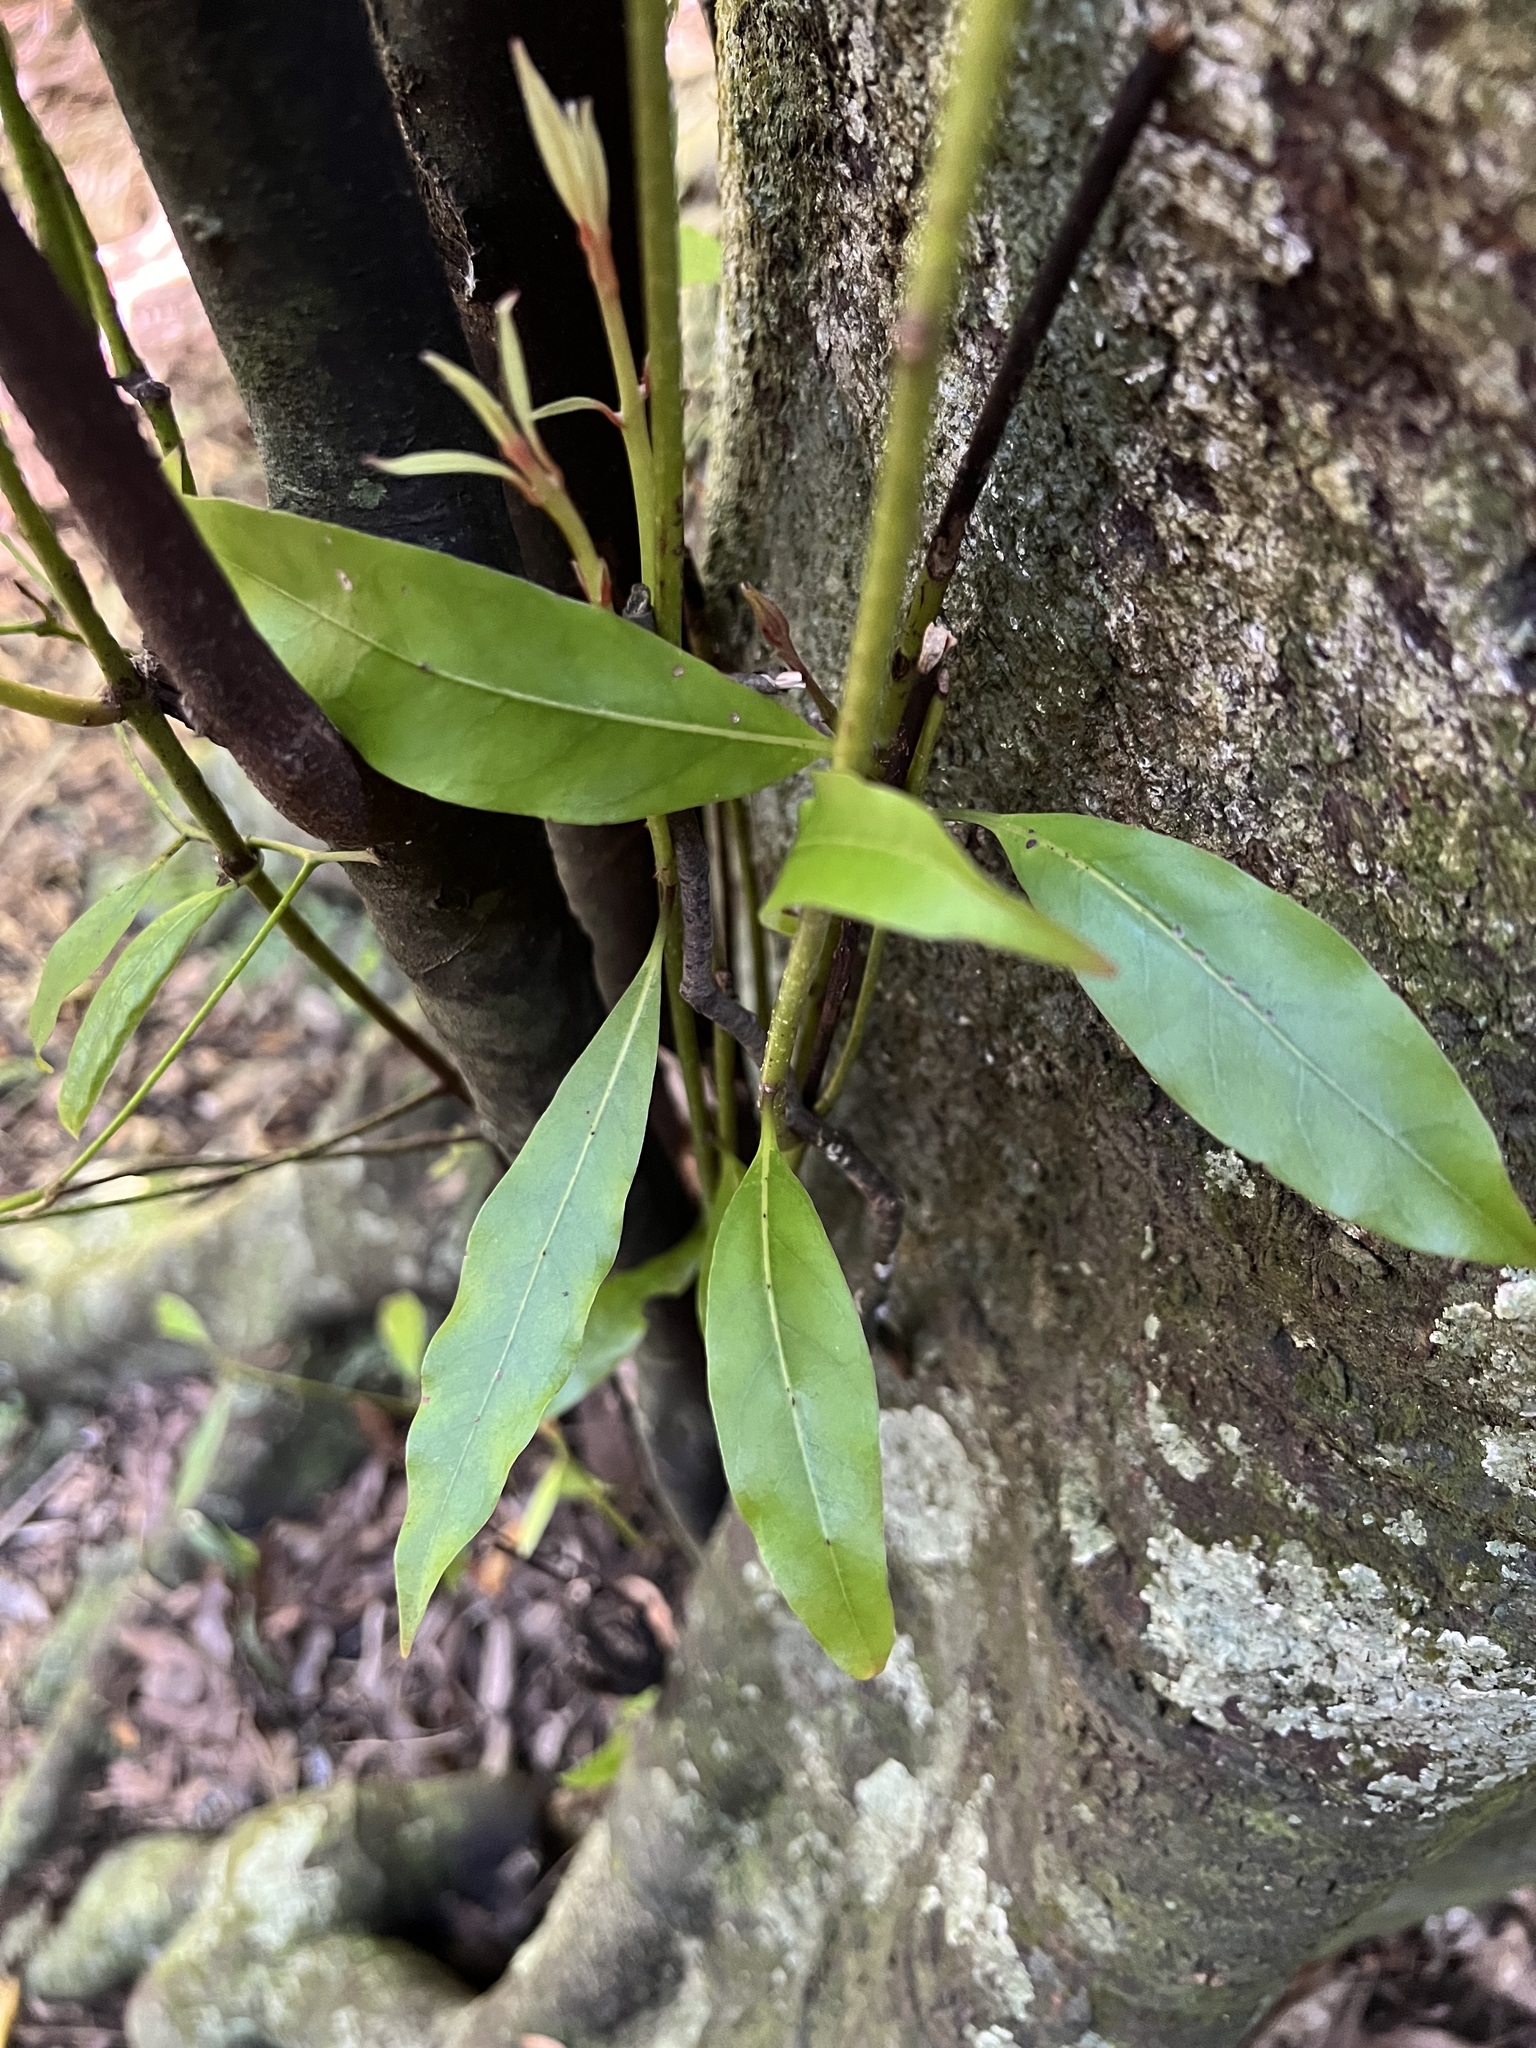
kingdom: Plantae
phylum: Tracheophyta
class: Magnoliopsida
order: Laurales
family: Lauraceae
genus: Beilschmiedia
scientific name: Beilschmiedia tawa
